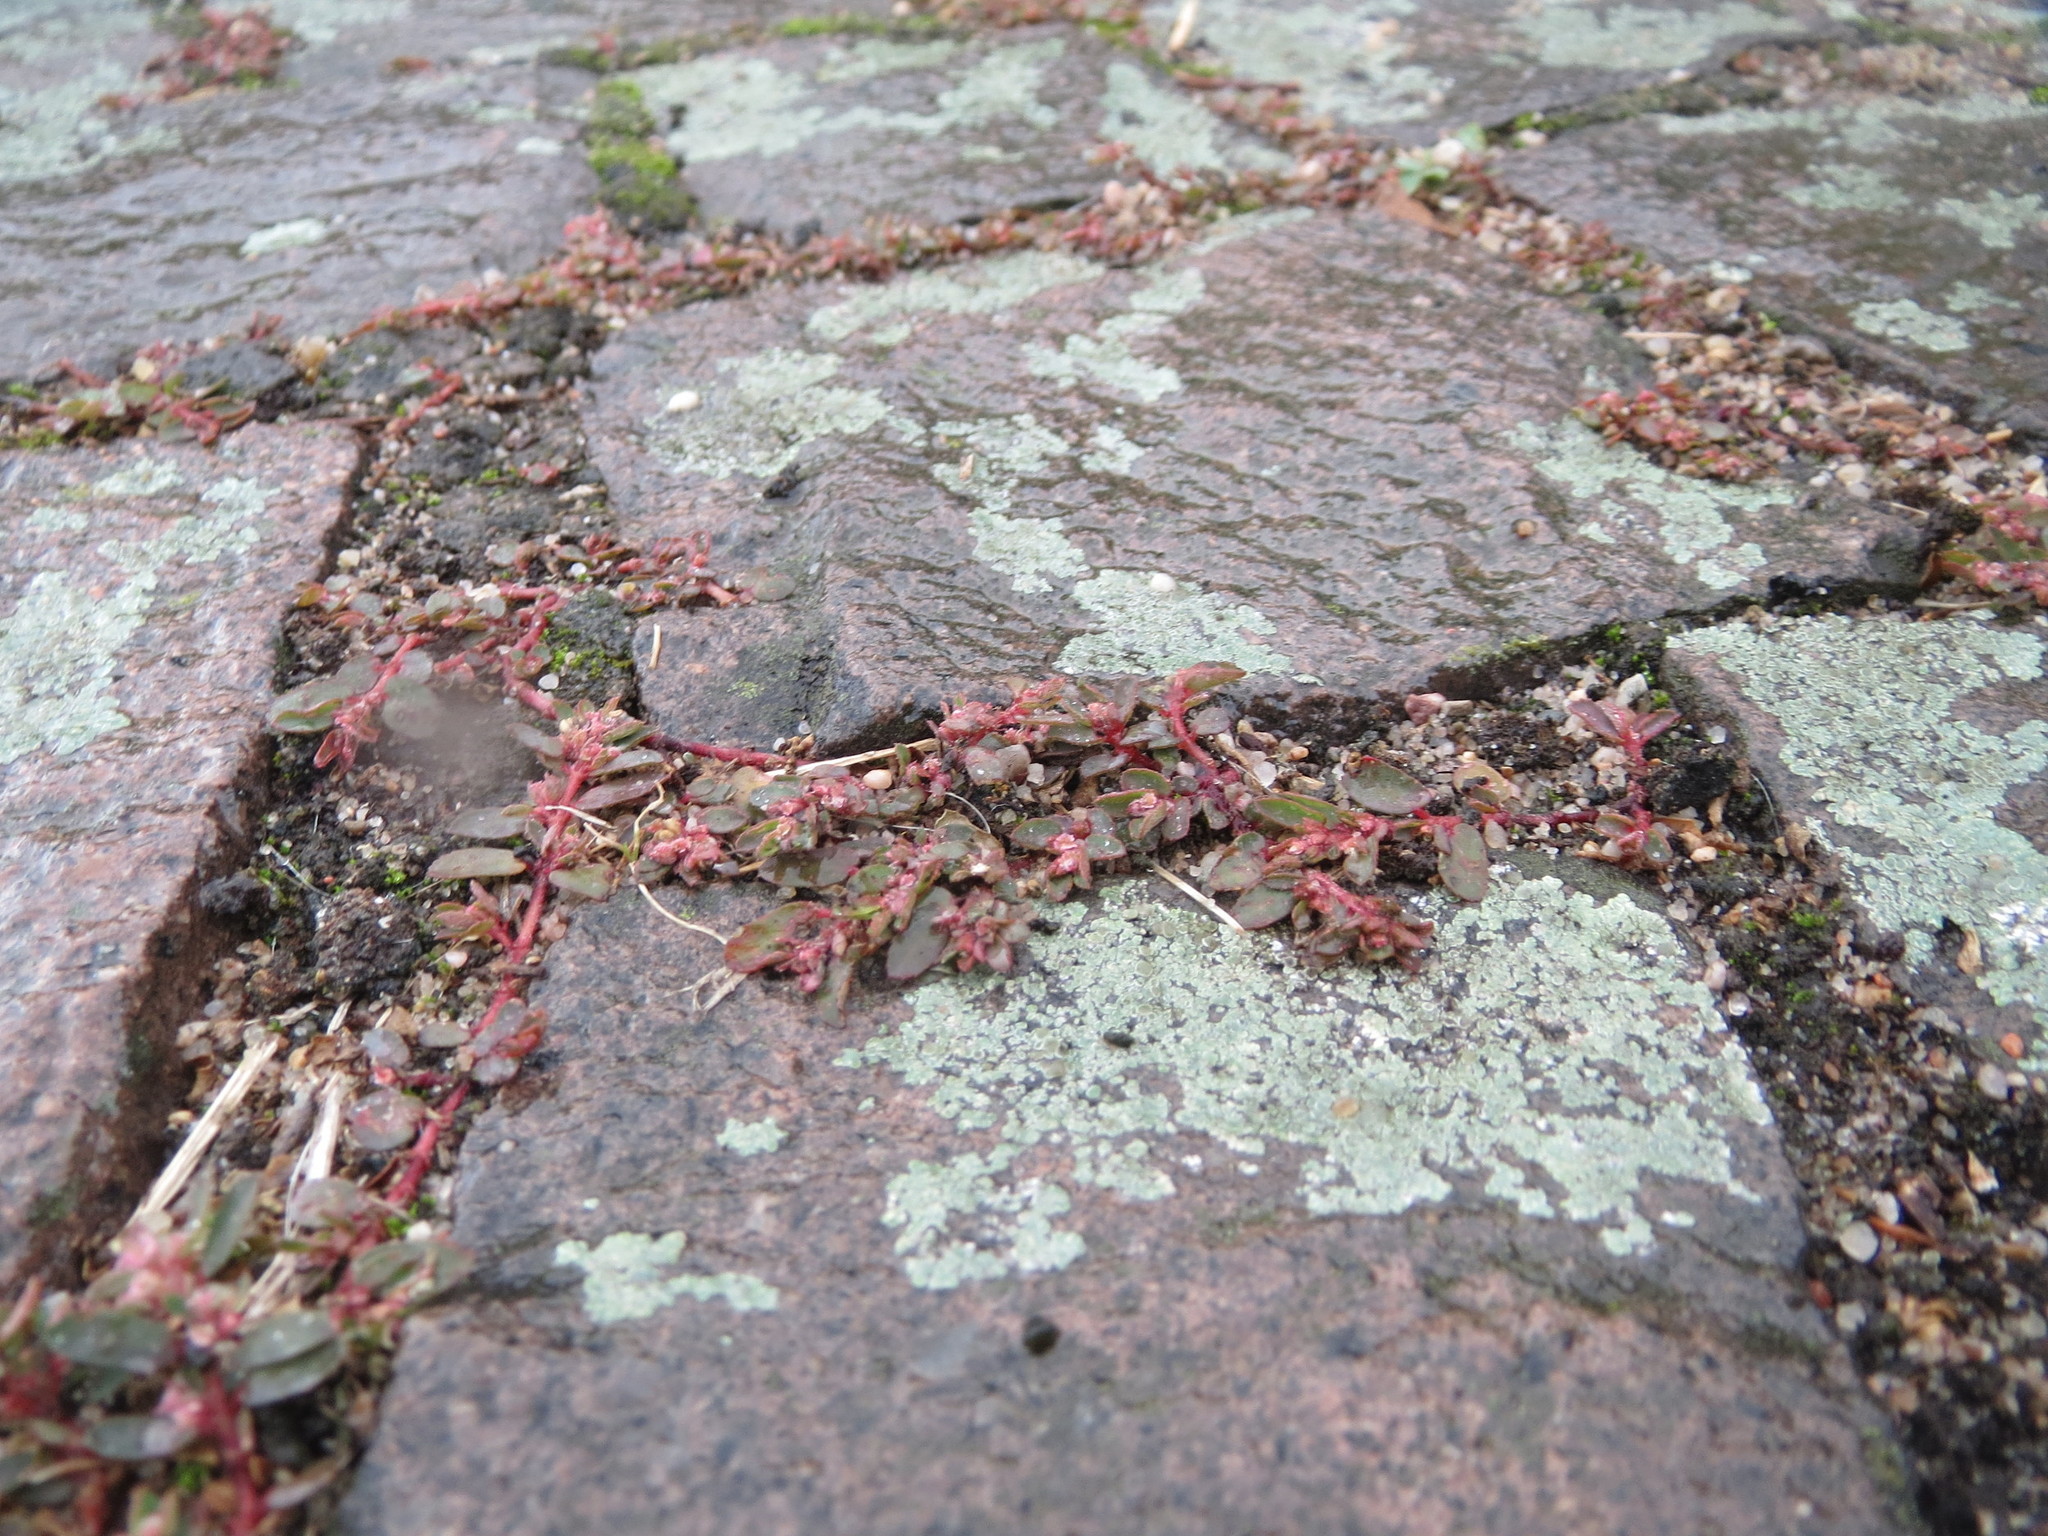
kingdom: Plantae
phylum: Tracheophyta
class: Magnoliopsida
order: Malpighiales
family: Euphorbiaceae
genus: Euphorbia
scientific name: Euphorbia maculata
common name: Spotted spurge
